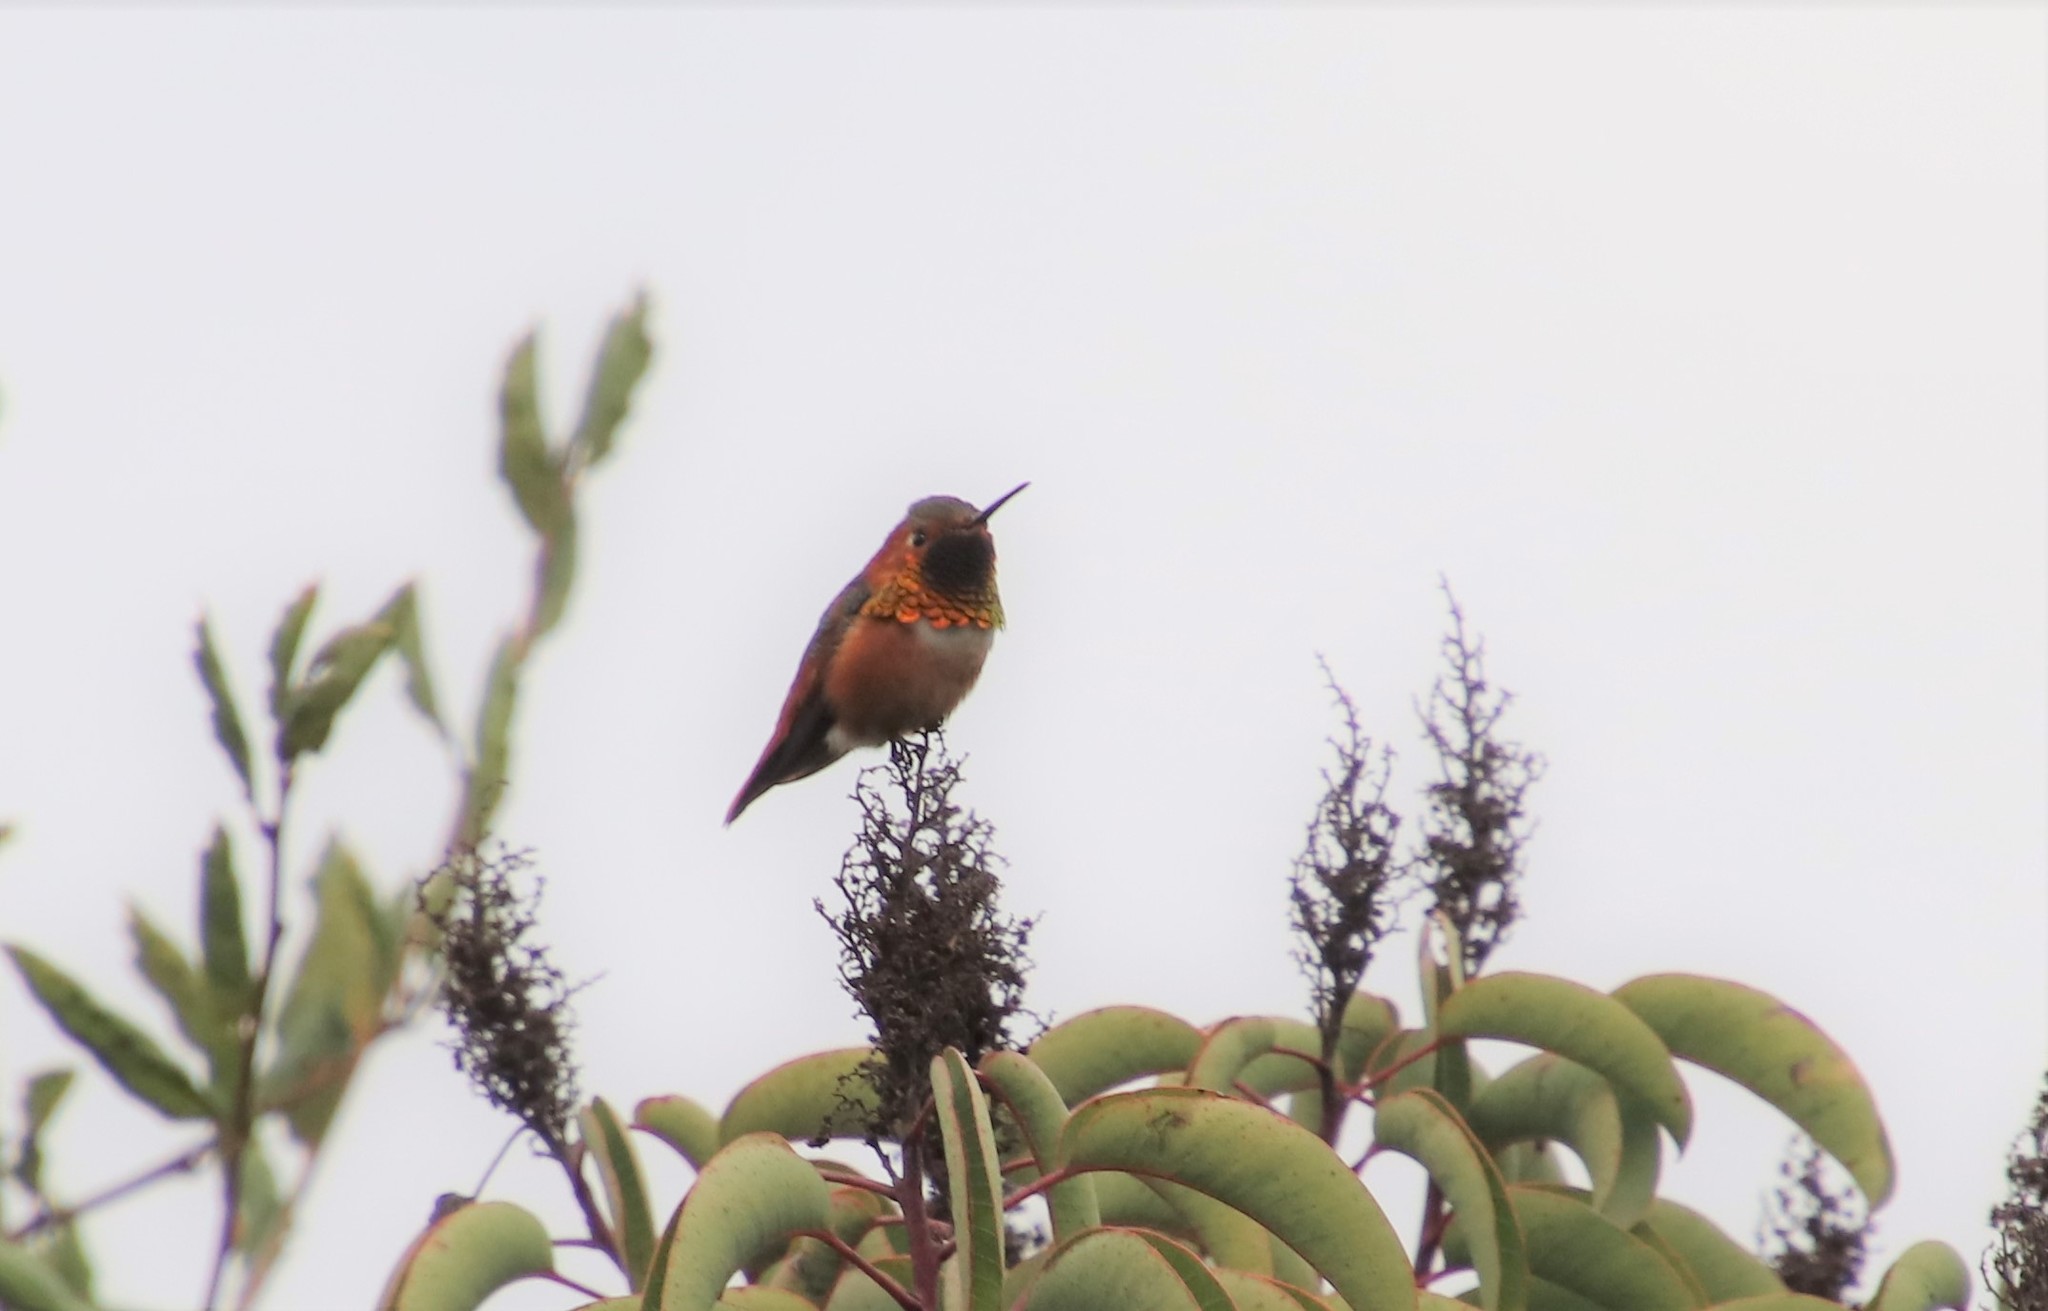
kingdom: Animalia
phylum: Chordata
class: Aves
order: Apodiformes
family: Trochilidae
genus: Selasphorus
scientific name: Selasphorus sasin
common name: Allen's hummingbird
